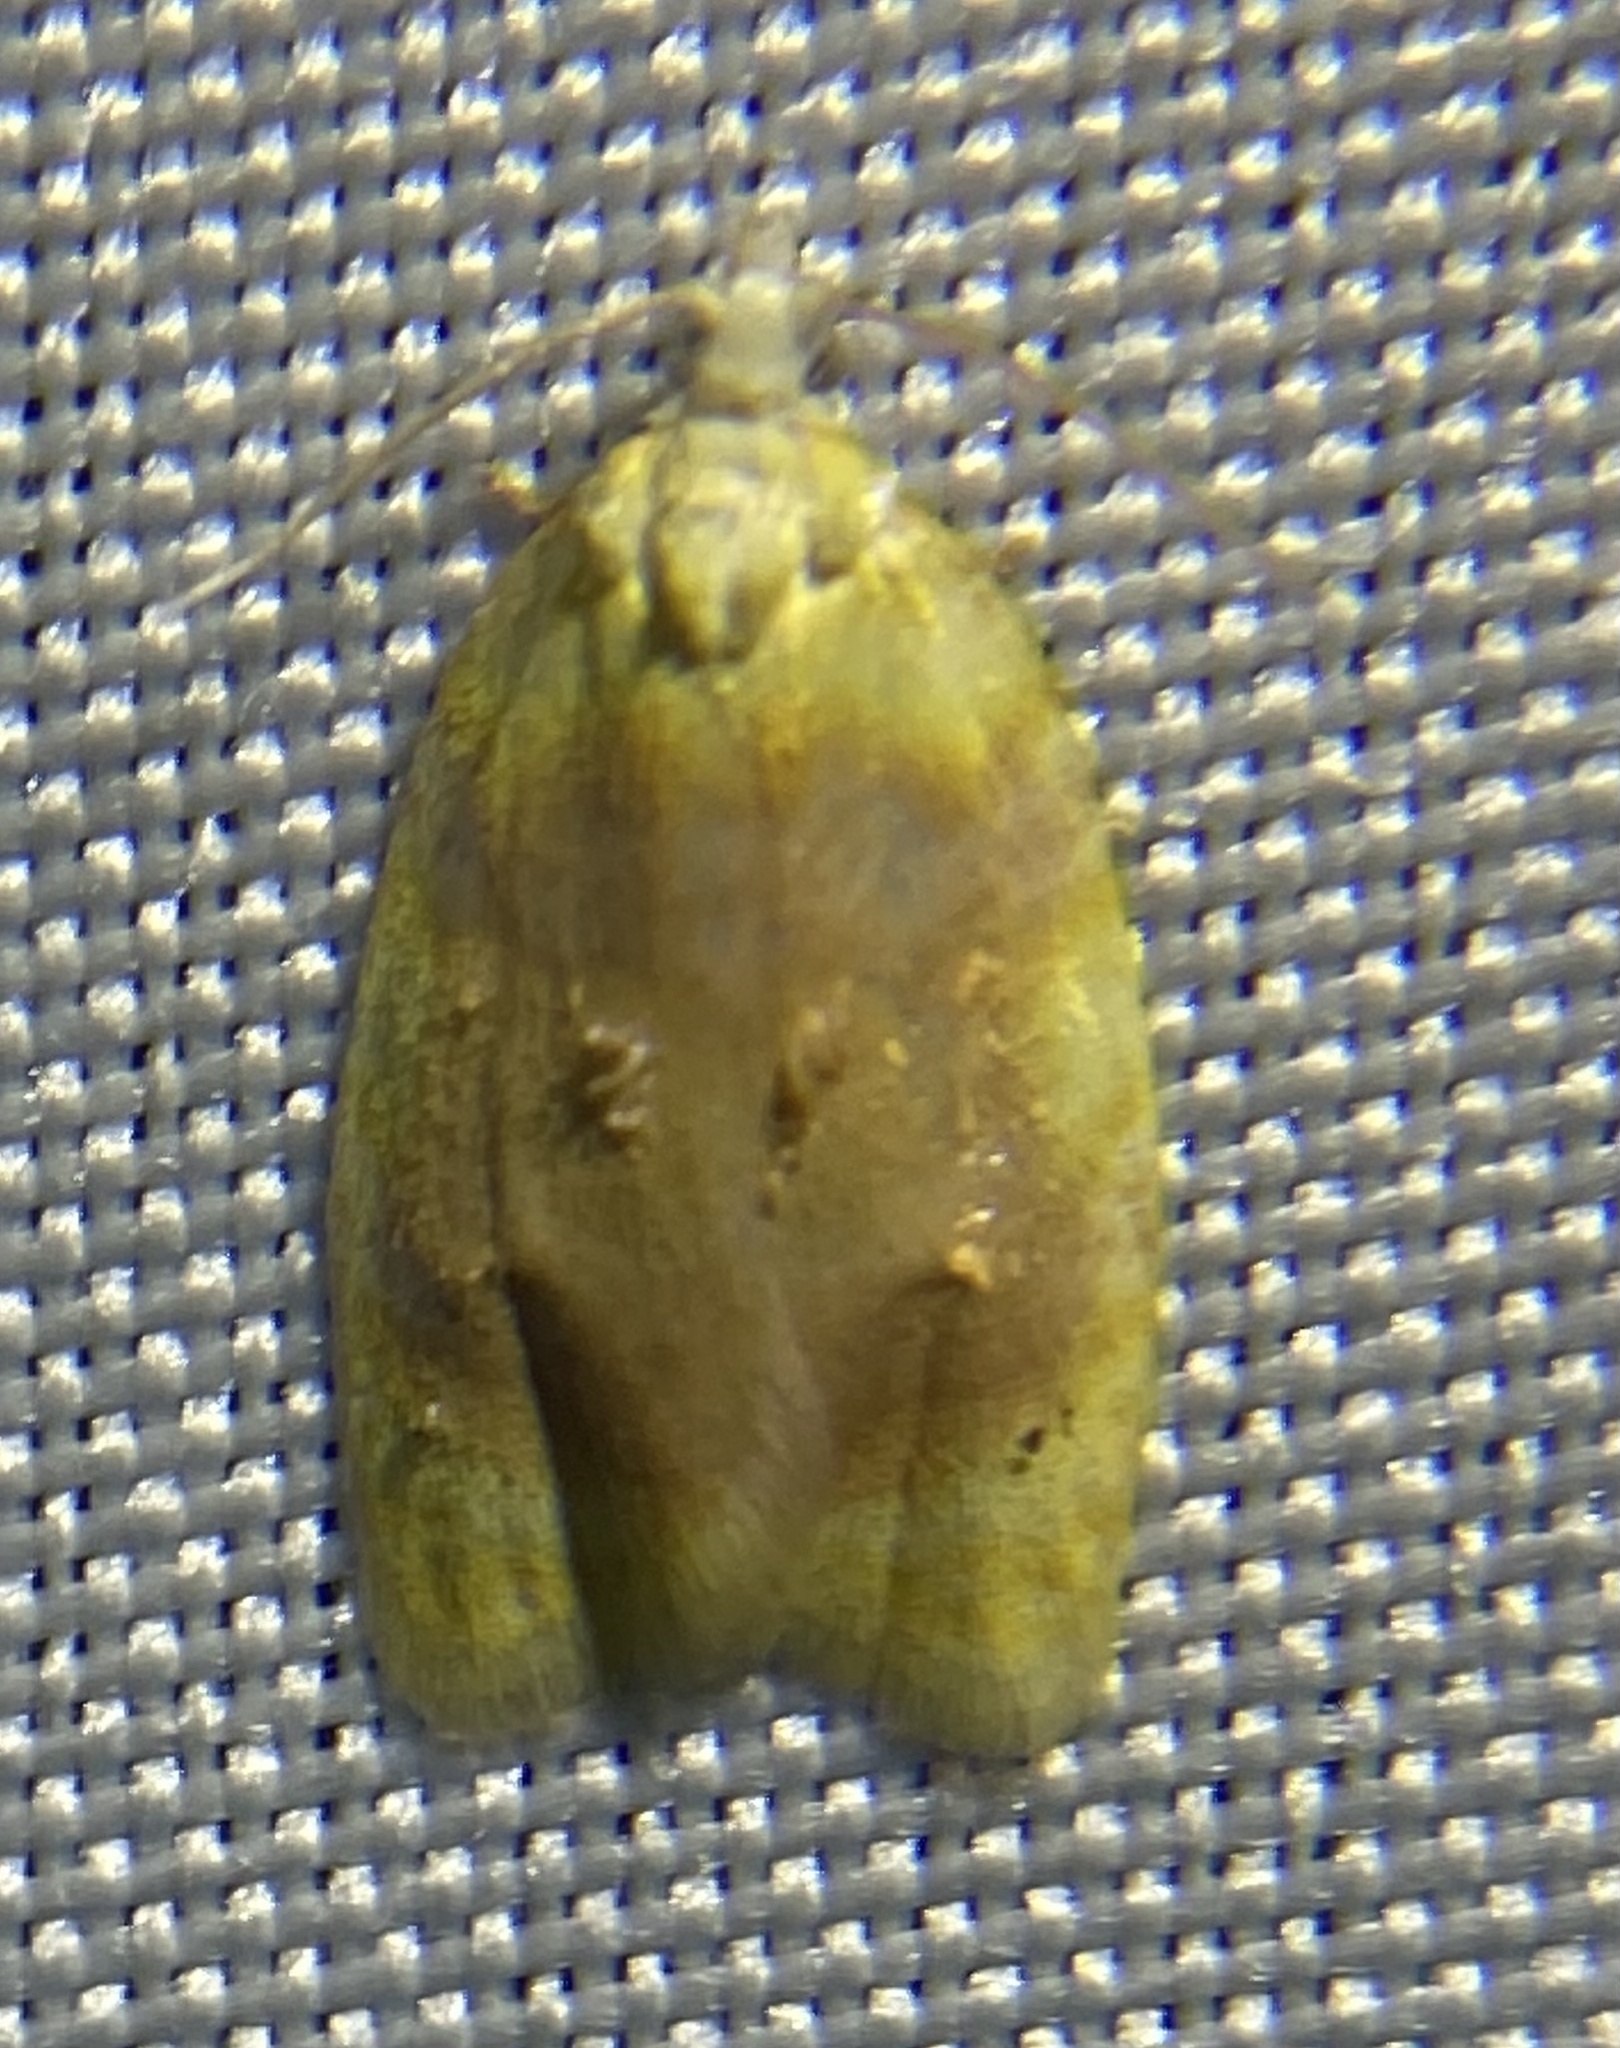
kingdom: Animalia
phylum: Arthropoda
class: Insecta
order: Lepidoptera
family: Tortricidae
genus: Acleris
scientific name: Acleris semipurpurana
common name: Oak leaftier moth
